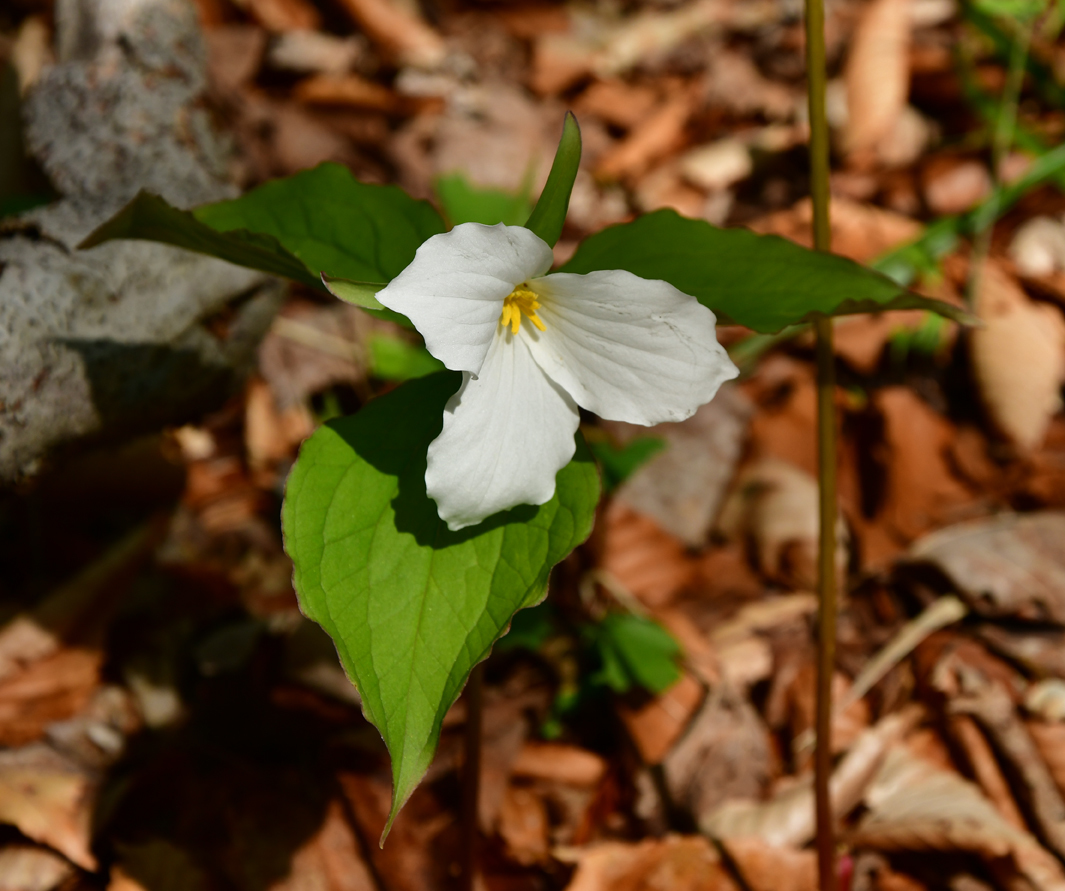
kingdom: Plantae
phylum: Tracheophyta
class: Liliopsida
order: Liliales
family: Melanthiaceae
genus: Trillium
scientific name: Trillium grandiflorum
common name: Great white trillium
